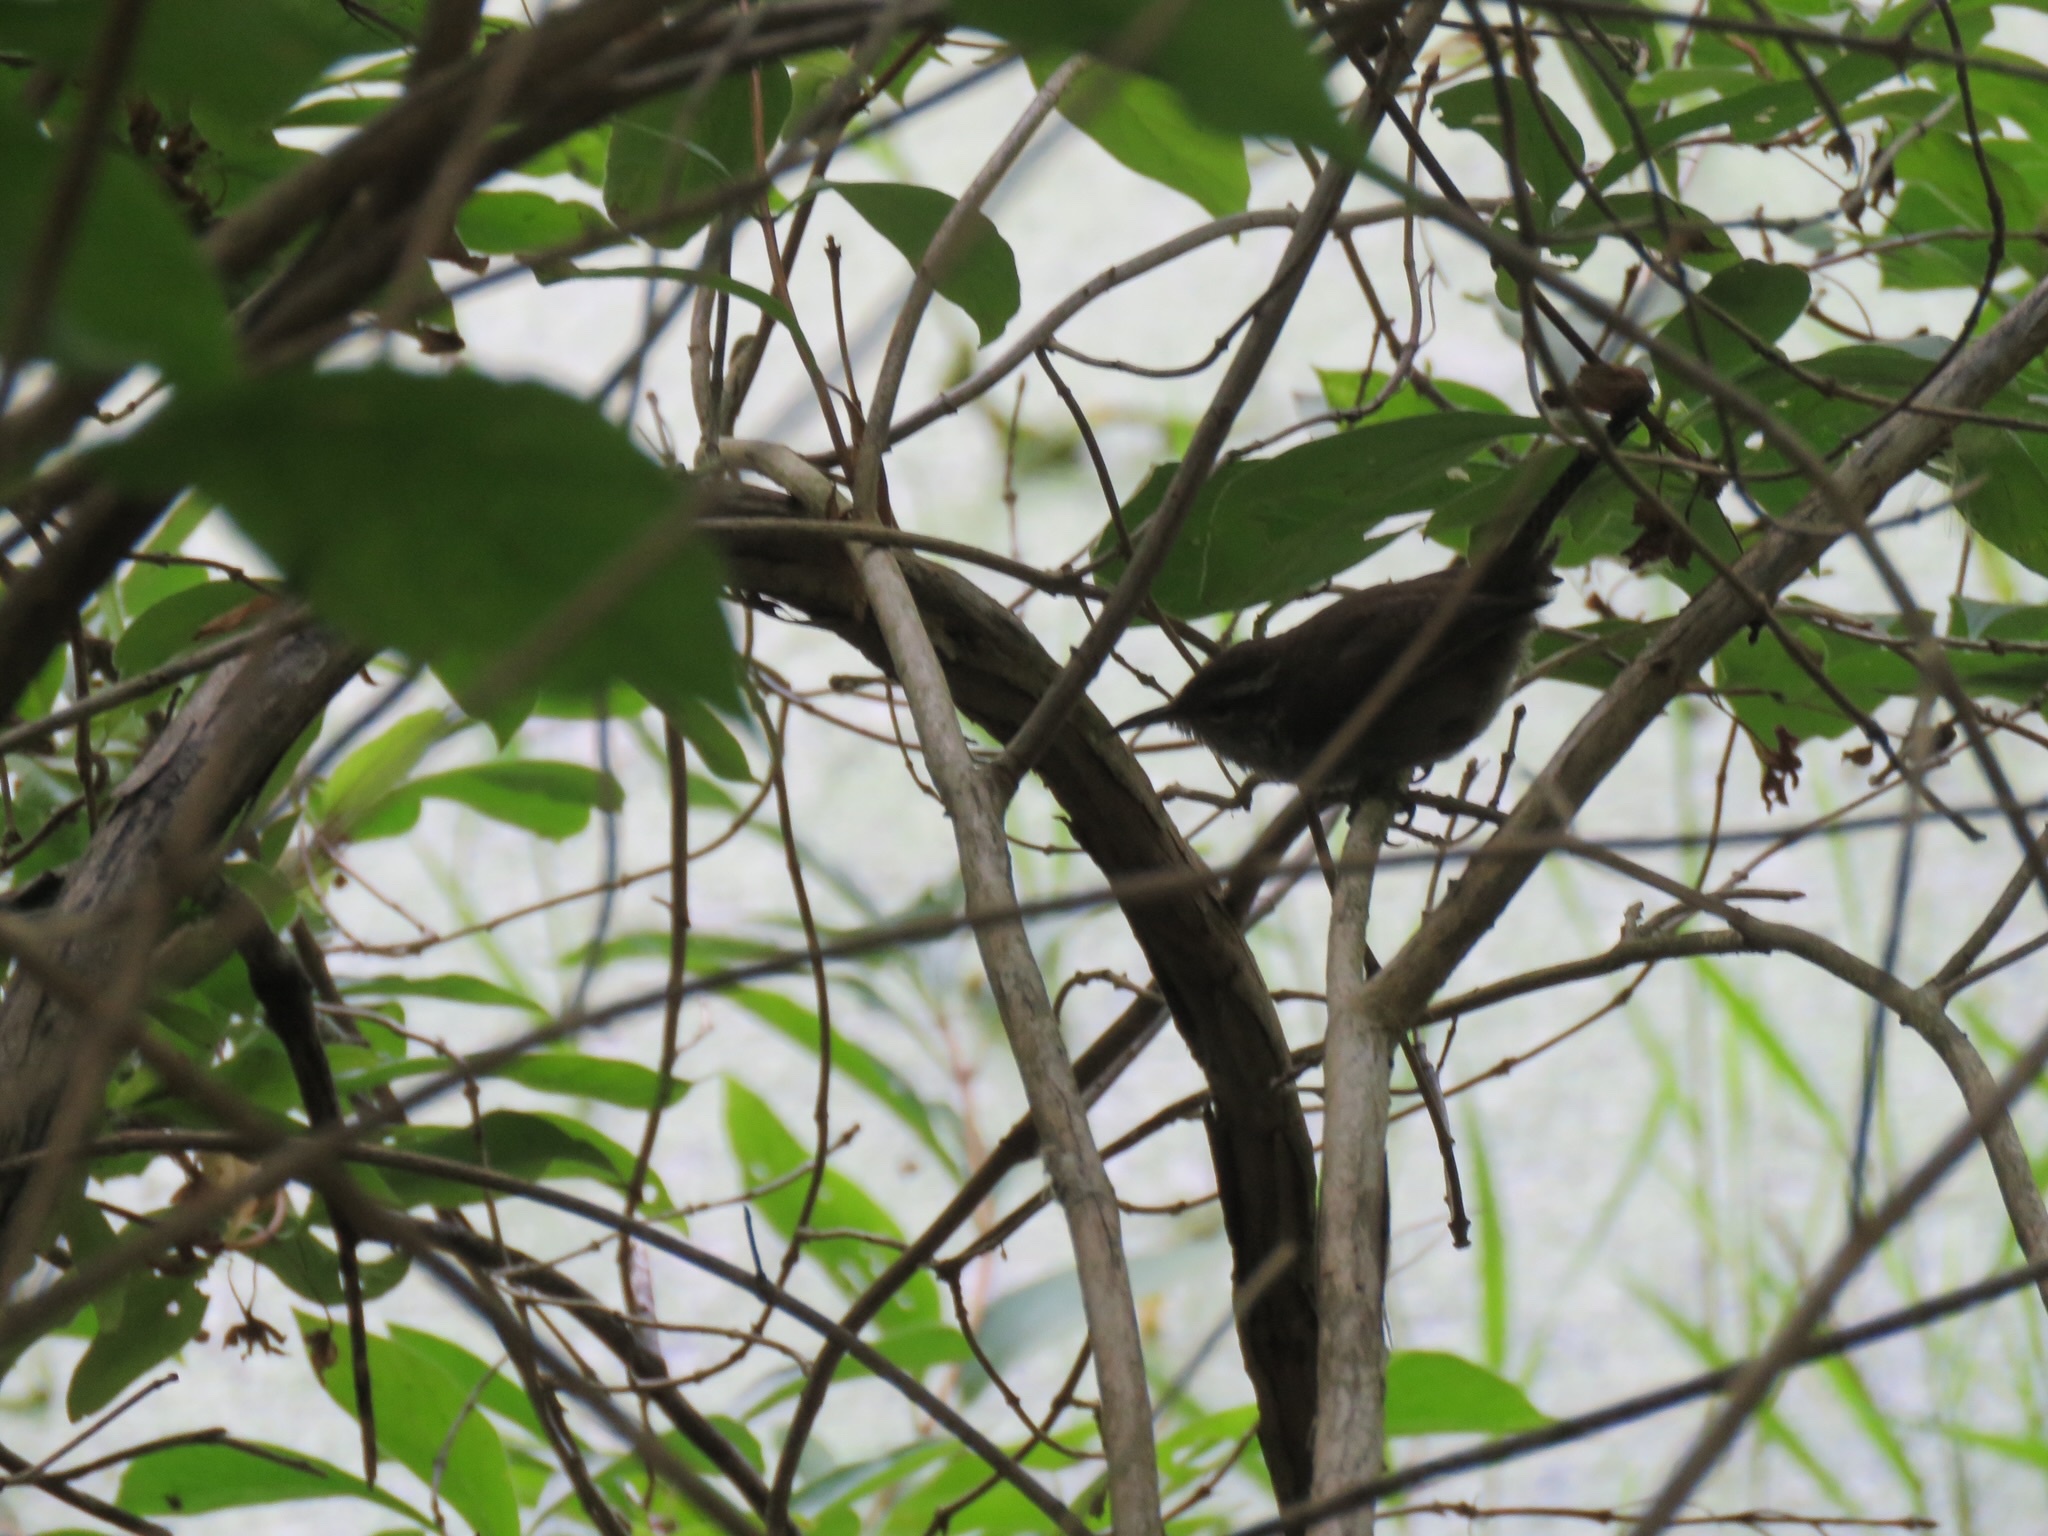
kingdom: Animalia
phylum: Chordata
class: Aves
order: Passeriformes
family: Troglodytidae
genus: Thryomanes
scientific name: Thryomanes bewickii
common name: Bewick's wren
